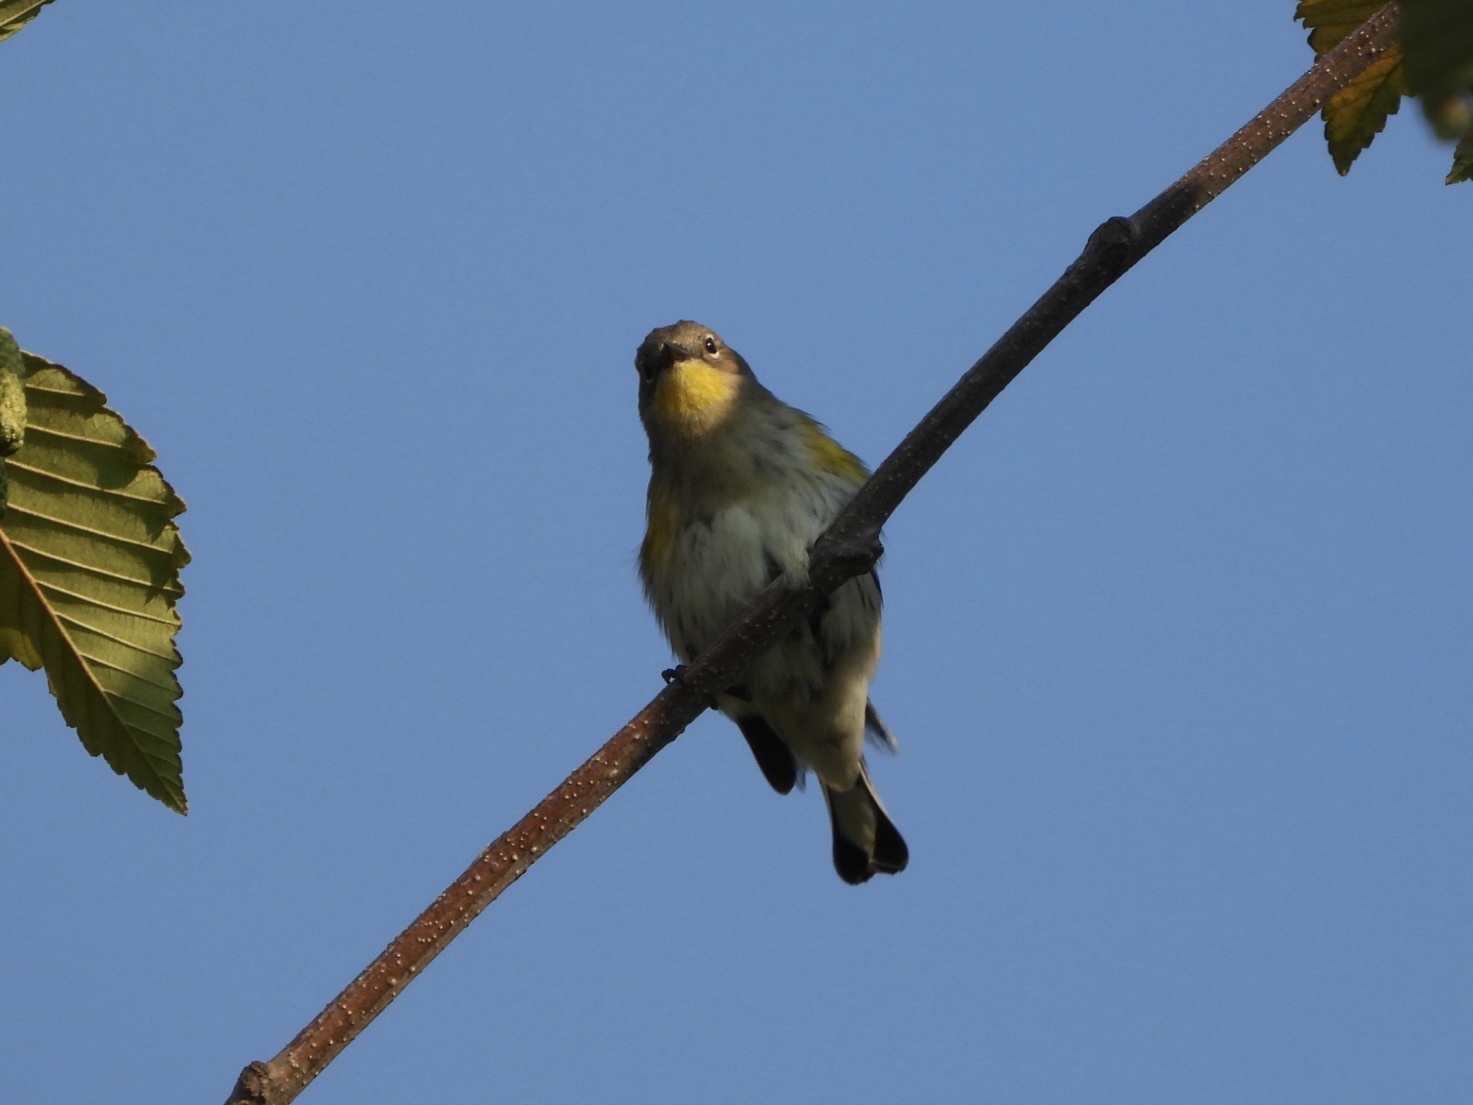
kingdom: Animalia
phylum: Chordata
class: Aves
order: Passeriformes
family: Parulidae
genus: Setophaga
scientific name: Setophaga auduboni
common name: Audubon's warbler
